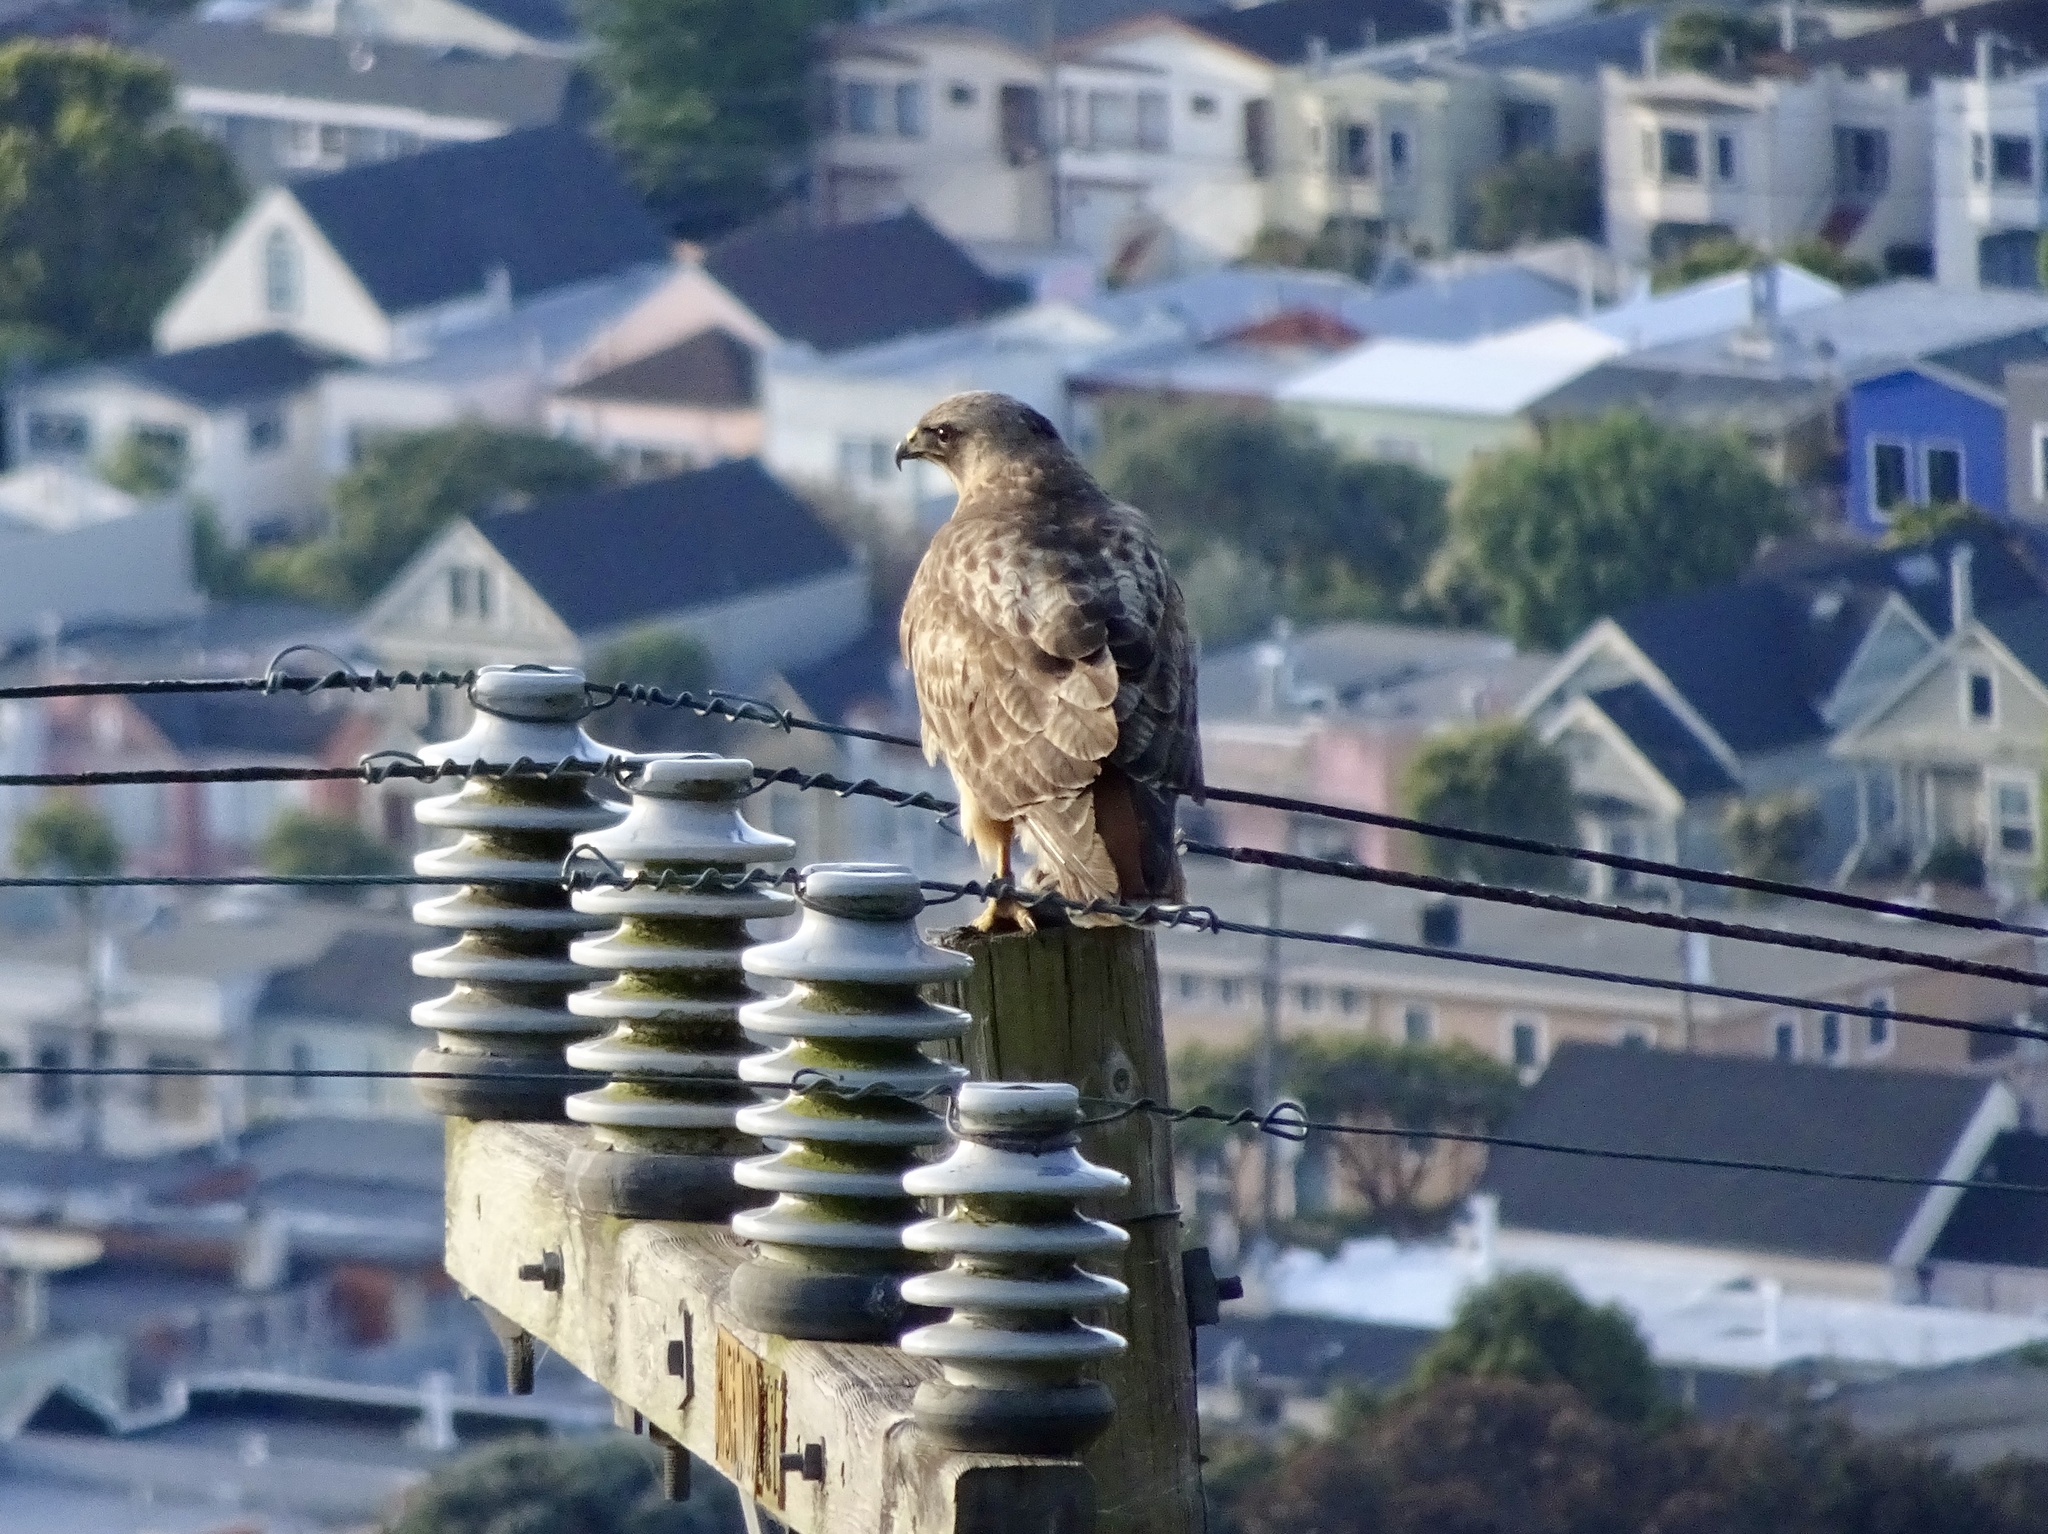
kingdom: Animalia
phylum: Chordata
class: Aves
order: Accipitriformes
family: Accipitridae
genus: Buteo
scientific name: Buteo jamaicensis
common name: Red-tailed hawk
